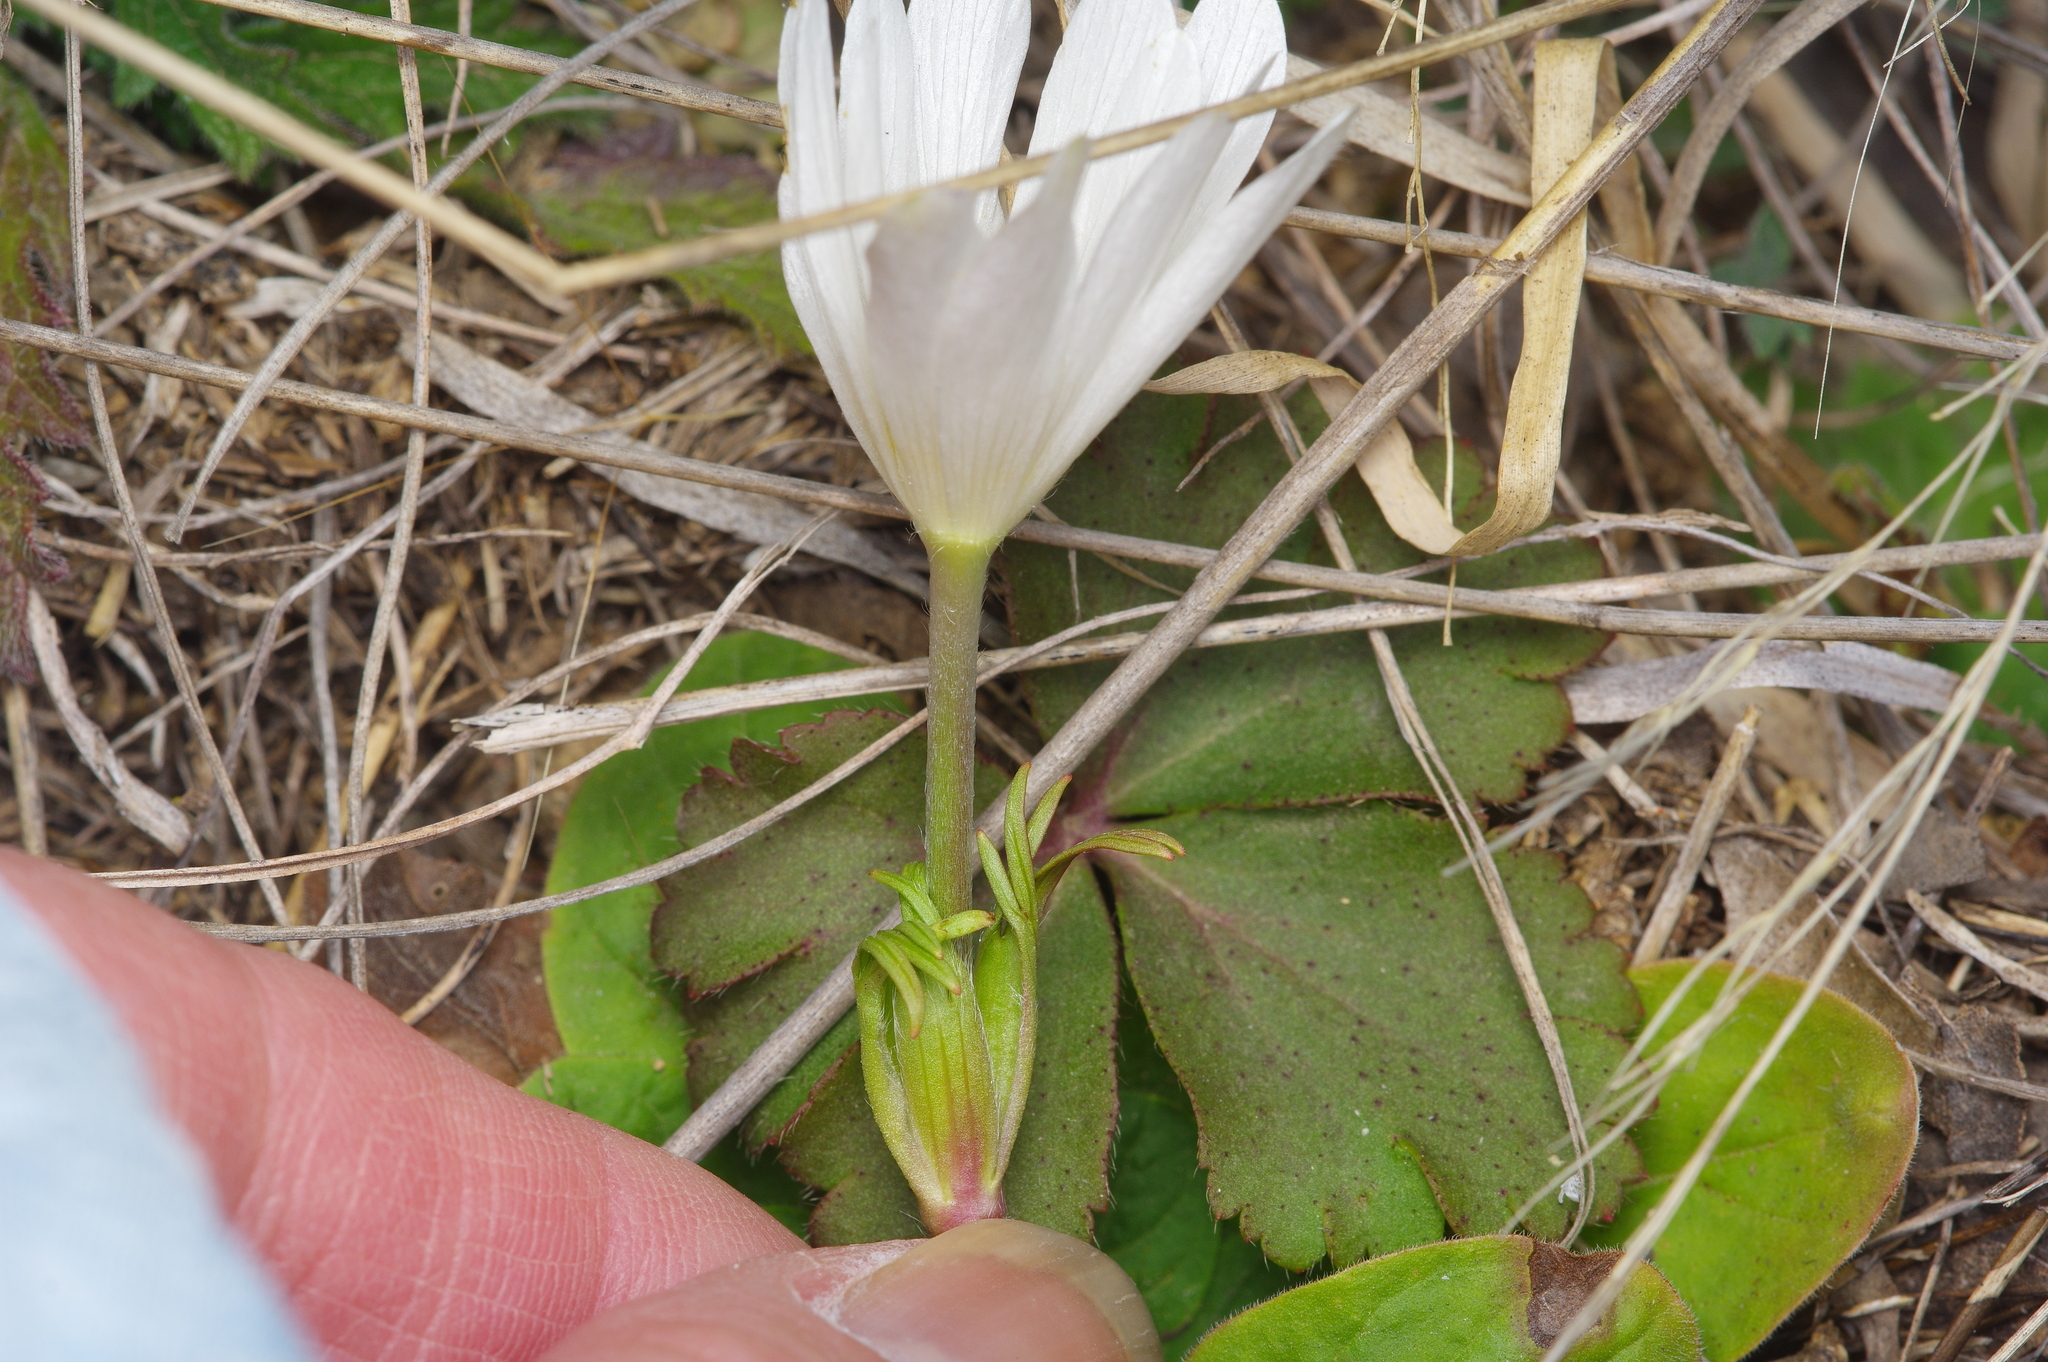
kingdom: Plantae
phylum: Tracheophyta
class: Magnoliopsida
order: Ranunculales
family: Ranunculaceae
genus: Anemone
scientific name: Anemone berlandieri
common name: Ten-petal anemone
